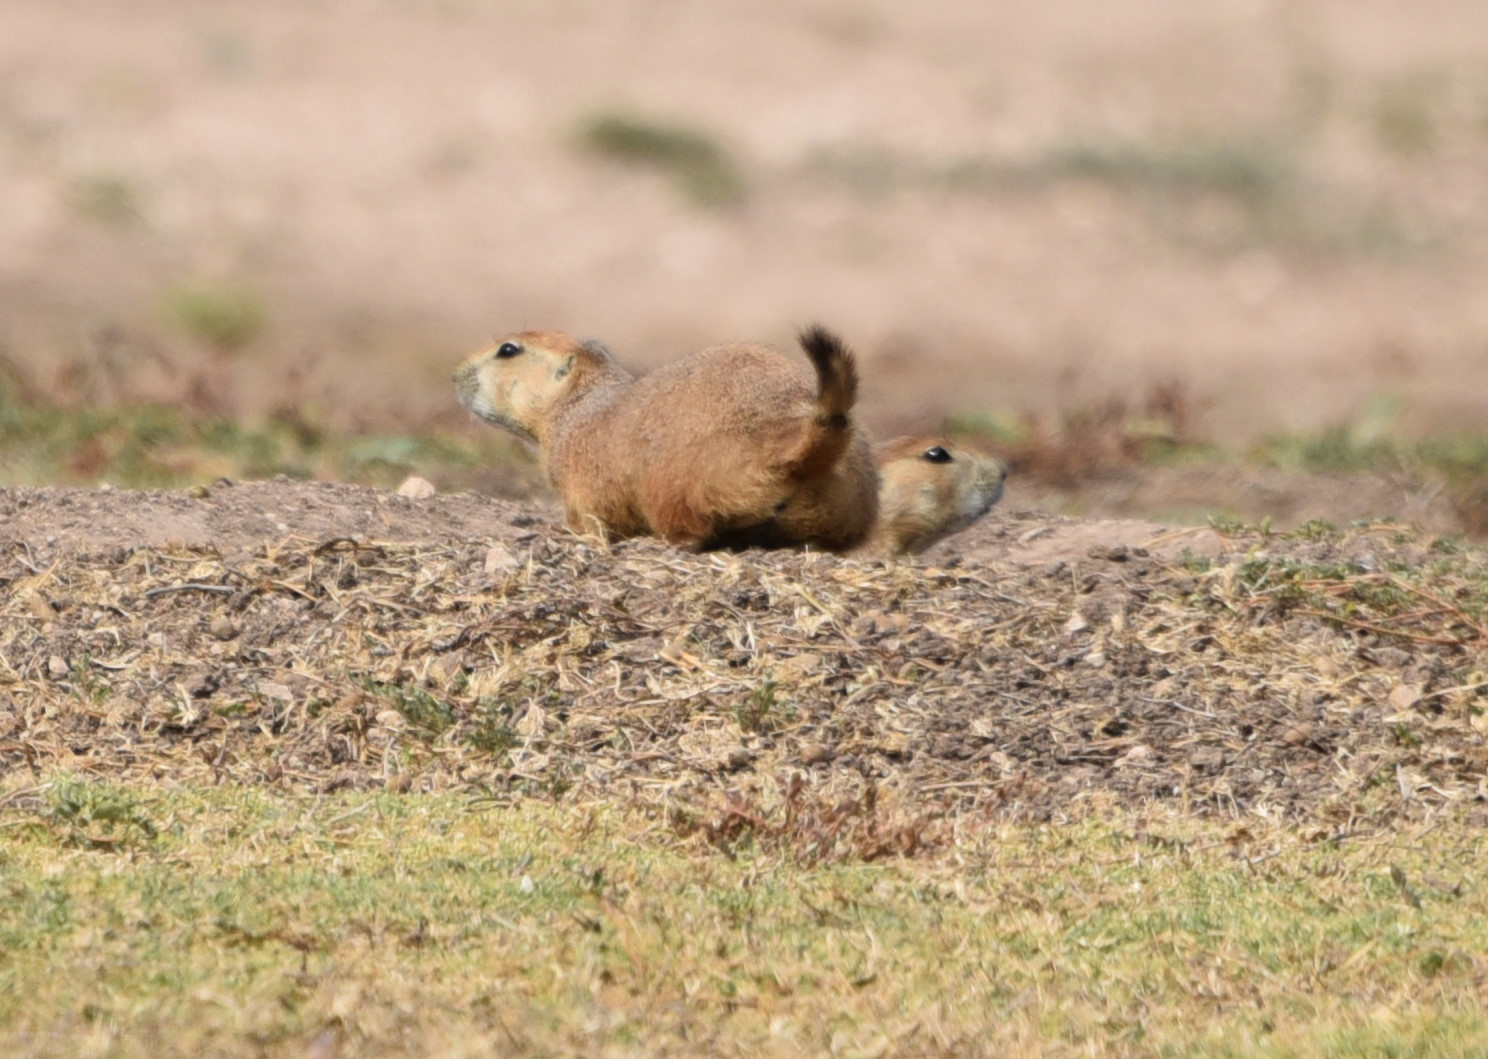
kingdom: Animalia
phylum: Chordata
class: Mammalia
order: Rodentia
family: Sciuridae
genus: Cynomys
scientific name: Cynomys ludovicianus
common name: Black-tailed prairie dog
